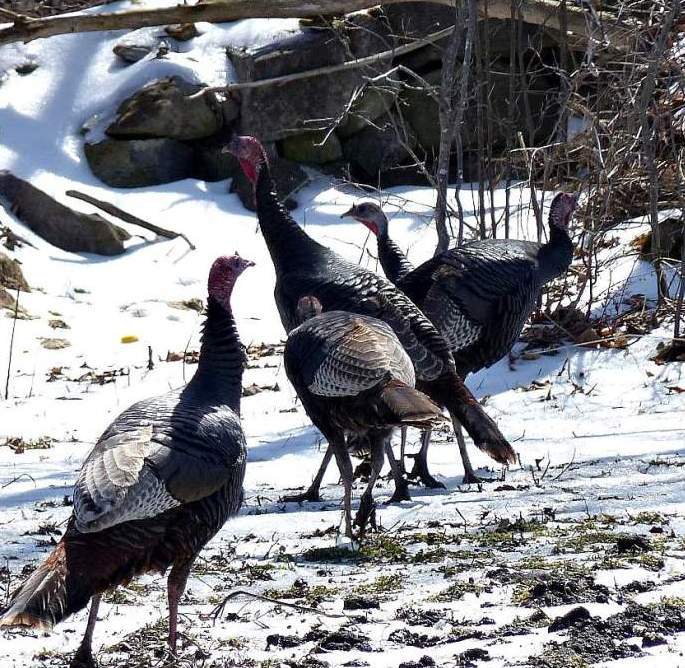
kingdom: Animalia
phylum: Chordata
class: Aves
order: Galliformes
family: Phasianidae
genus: Meleagris
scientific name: Meleagris gallopavo
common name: Wild turkey
